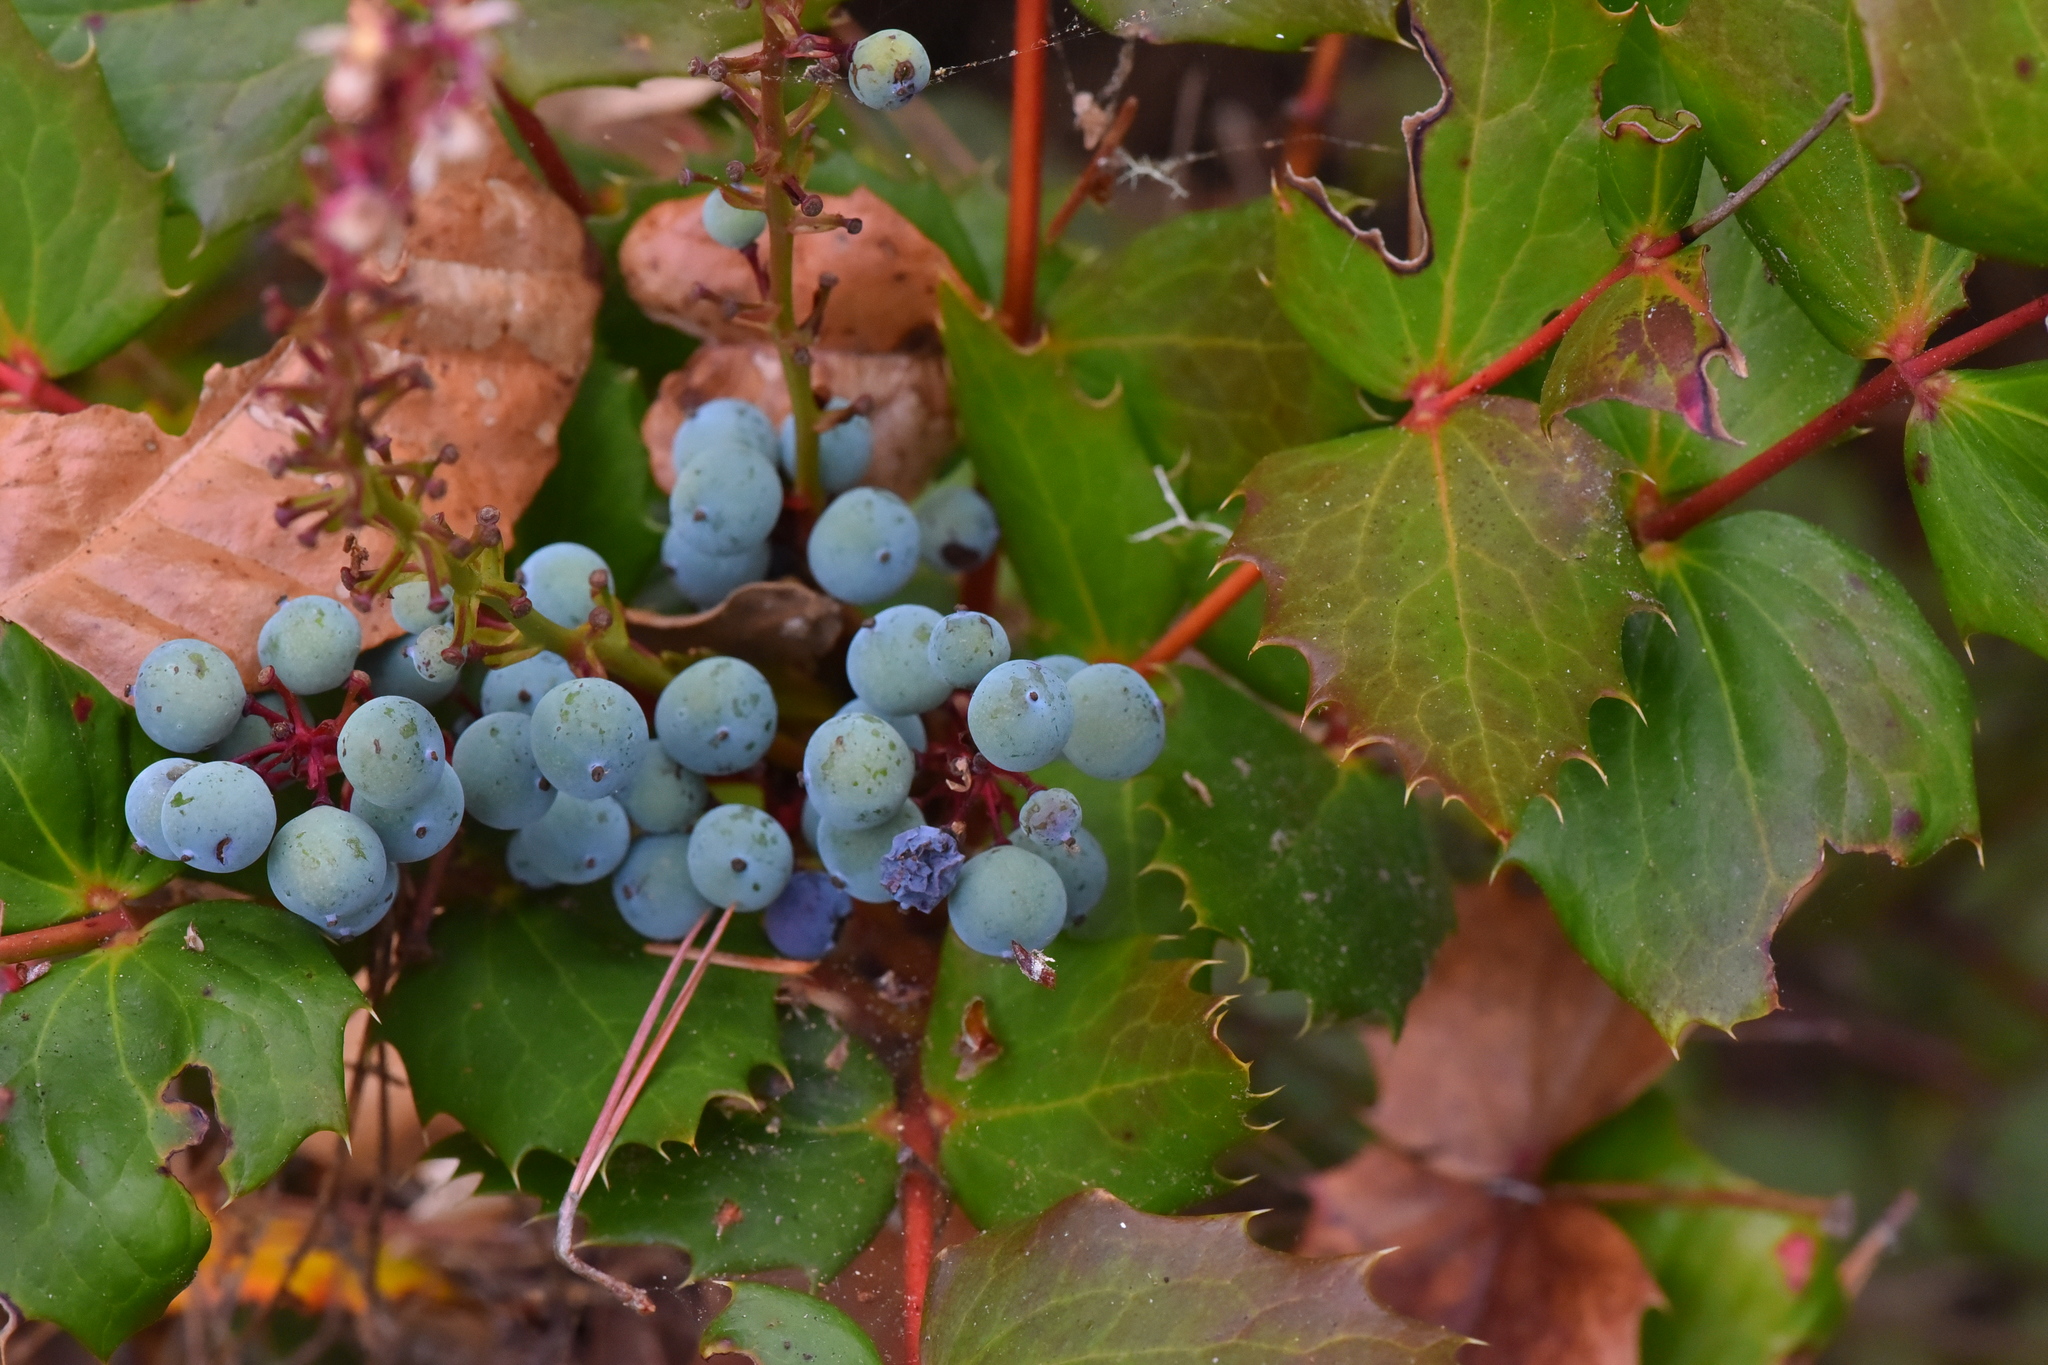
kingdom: Plantae
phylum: Tracheophyta
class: Magnoliopsida
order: Ranunculales
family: Berberidaceae
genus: Mahonia
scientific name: Mahonia nervosa
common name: Cascade oregon-grape
